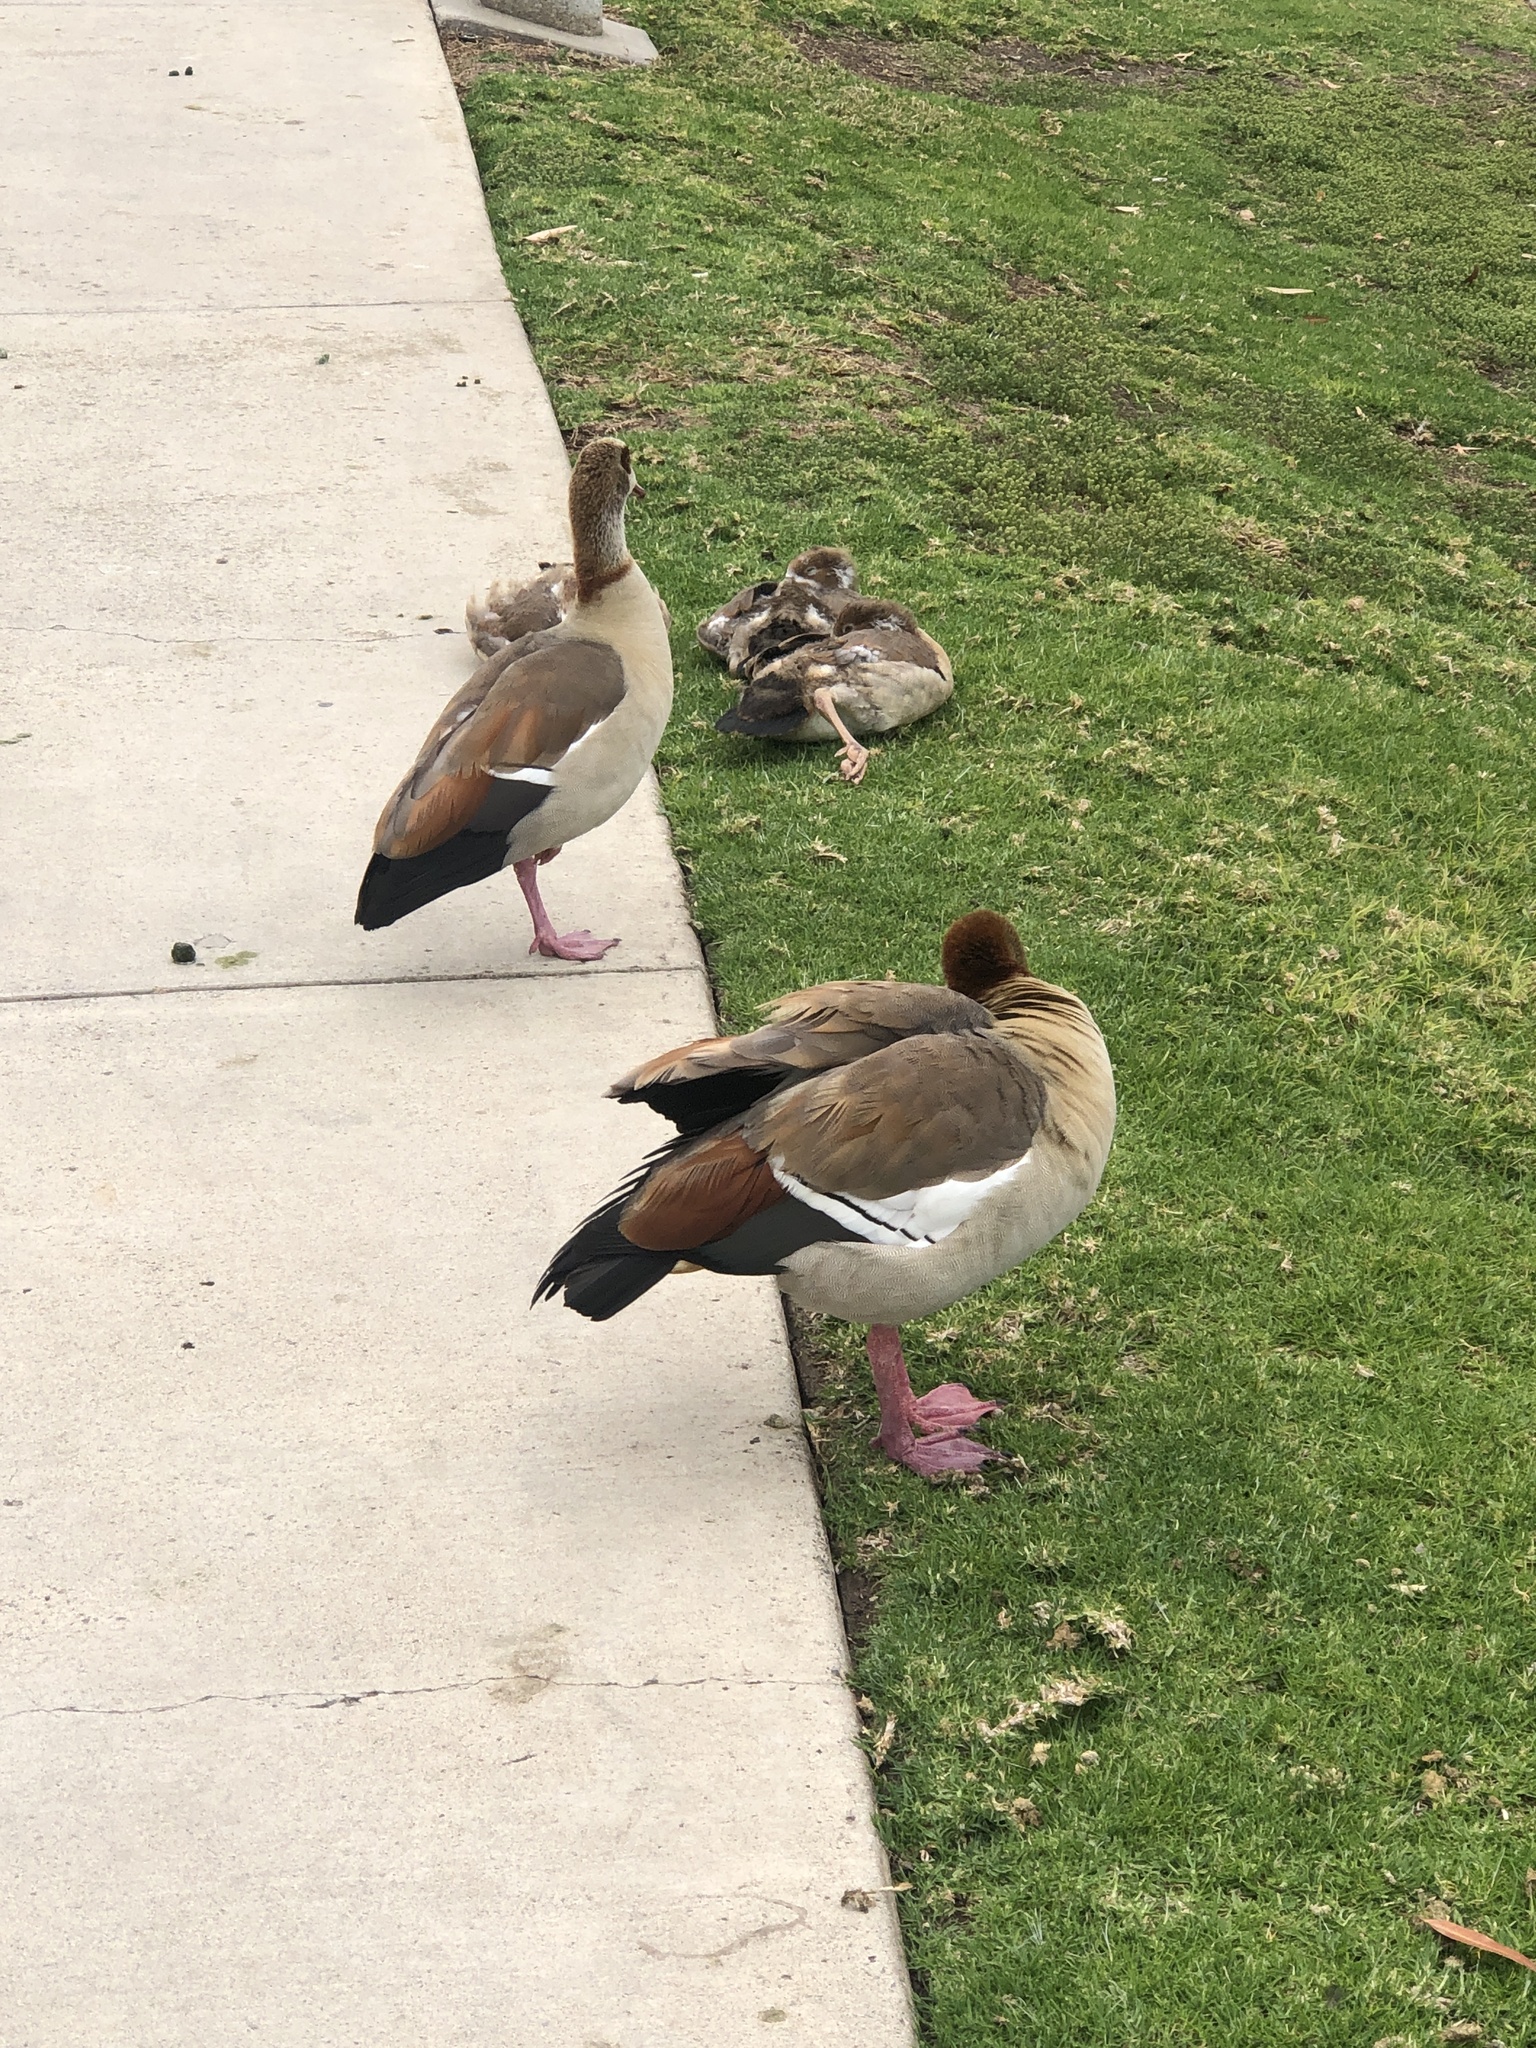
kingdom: Animalia
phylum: Chordata
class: Aves
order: Anseriformes
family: Anatidae
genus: Alopochen
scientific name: Alopochen aegyptiaca
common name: Egyptian goose
